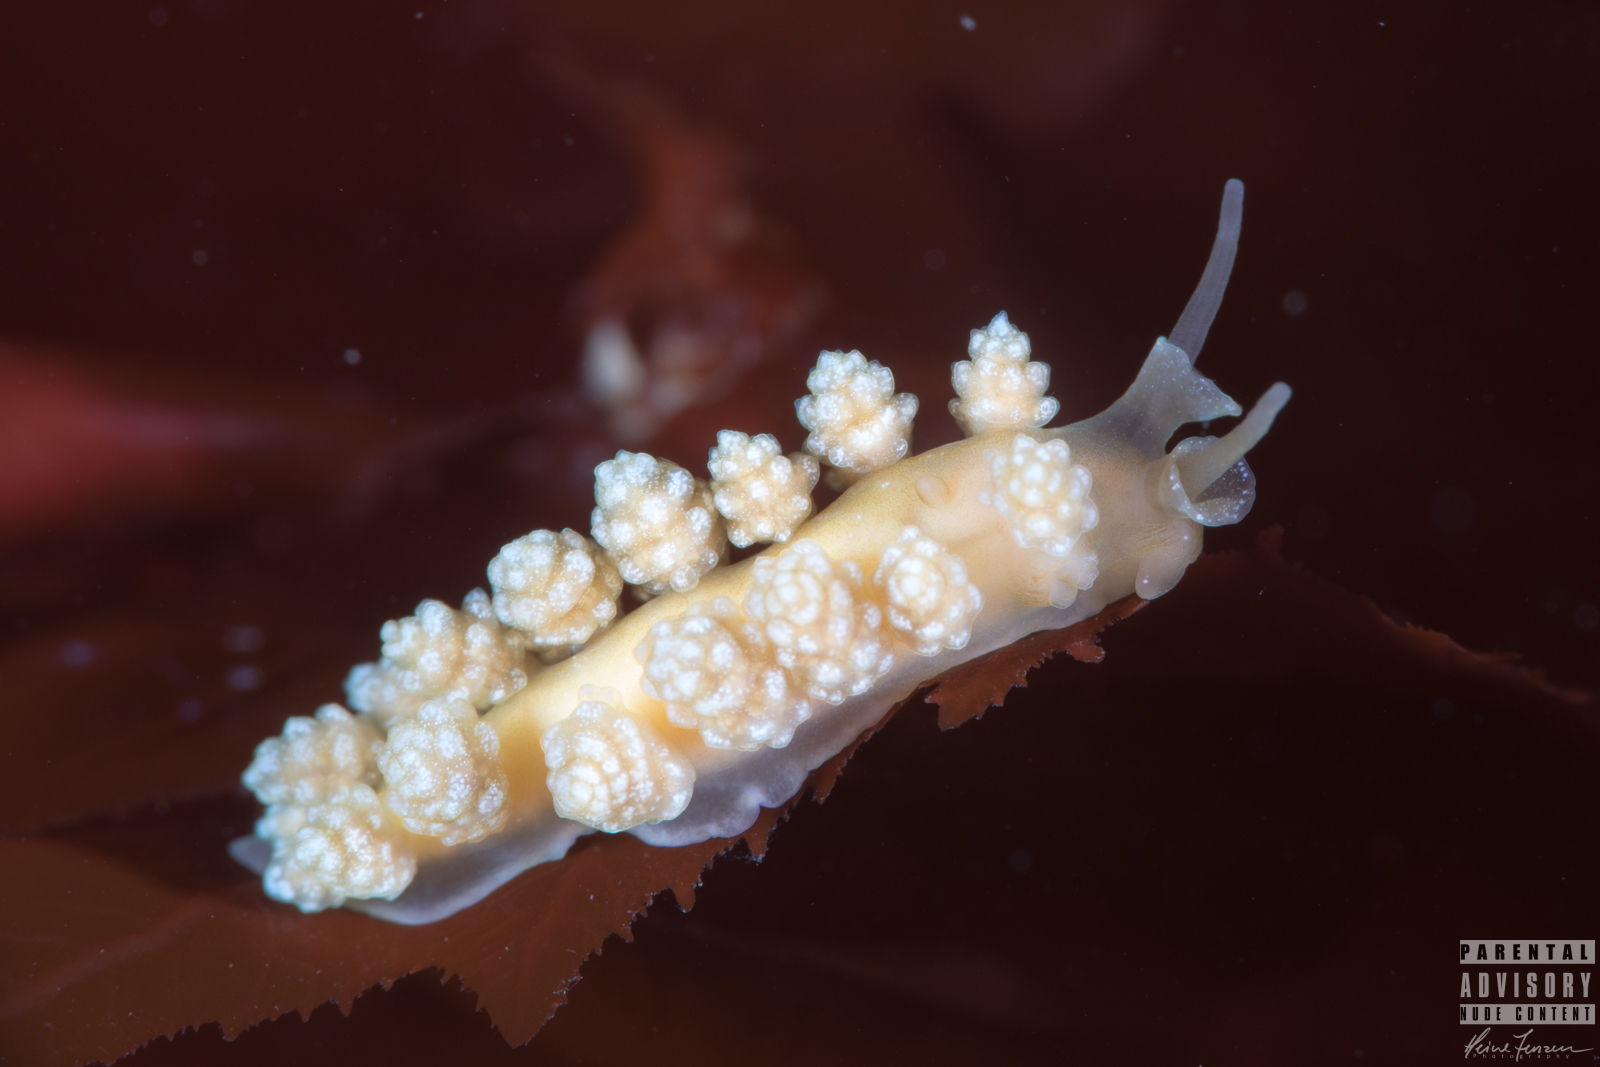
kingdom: Animalia
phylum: Mollusca
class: Gastropoda
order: Nudibranchia
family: Dotidae
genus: Doto
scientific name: Doto fragilis
